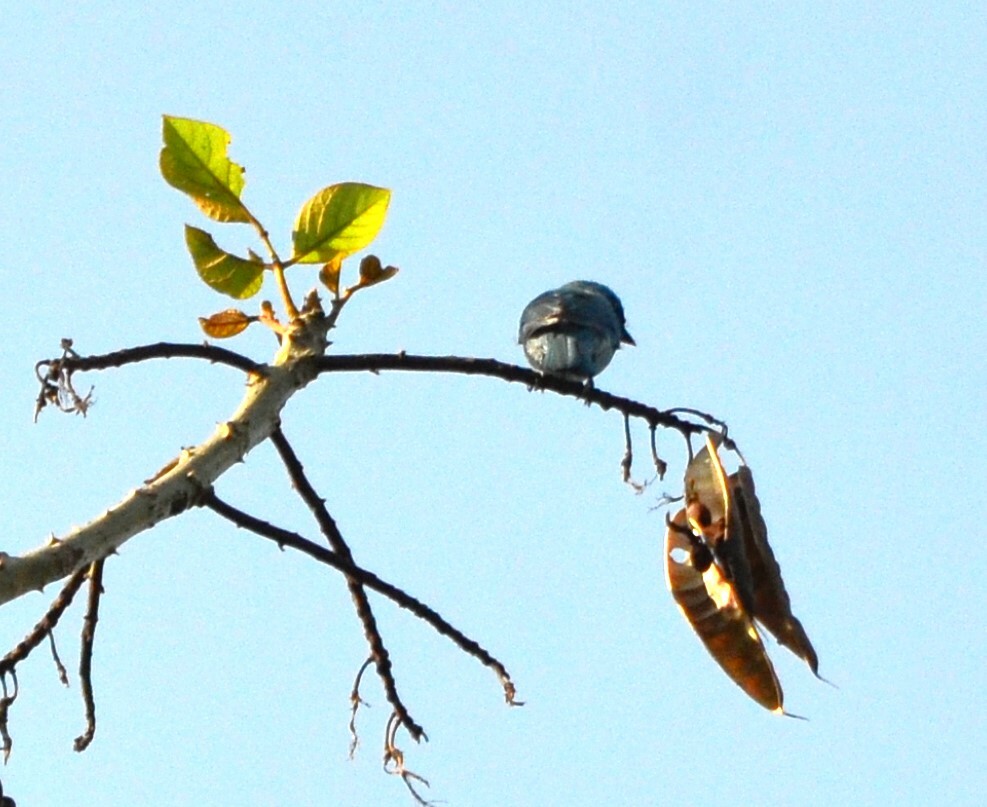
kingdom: Animalia
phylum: Chordata
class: Aves
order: Passeriformes
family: Muscicapidae
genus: Eumyias
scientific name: Eumyias thalassinus
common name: Verditer flycatcher
